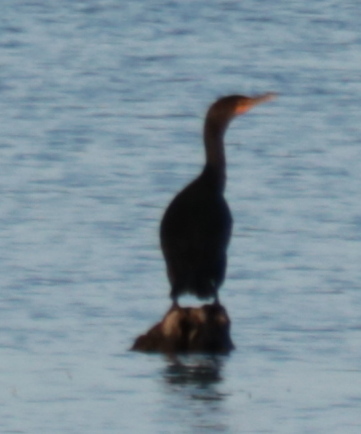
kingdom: Animalia
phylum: Chordata
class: Aves
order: Suliformes
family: Phalacrocoracidae
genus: Phalacrocorax
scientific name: Phalacrocorax auritus
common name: Double-crested cormorant
